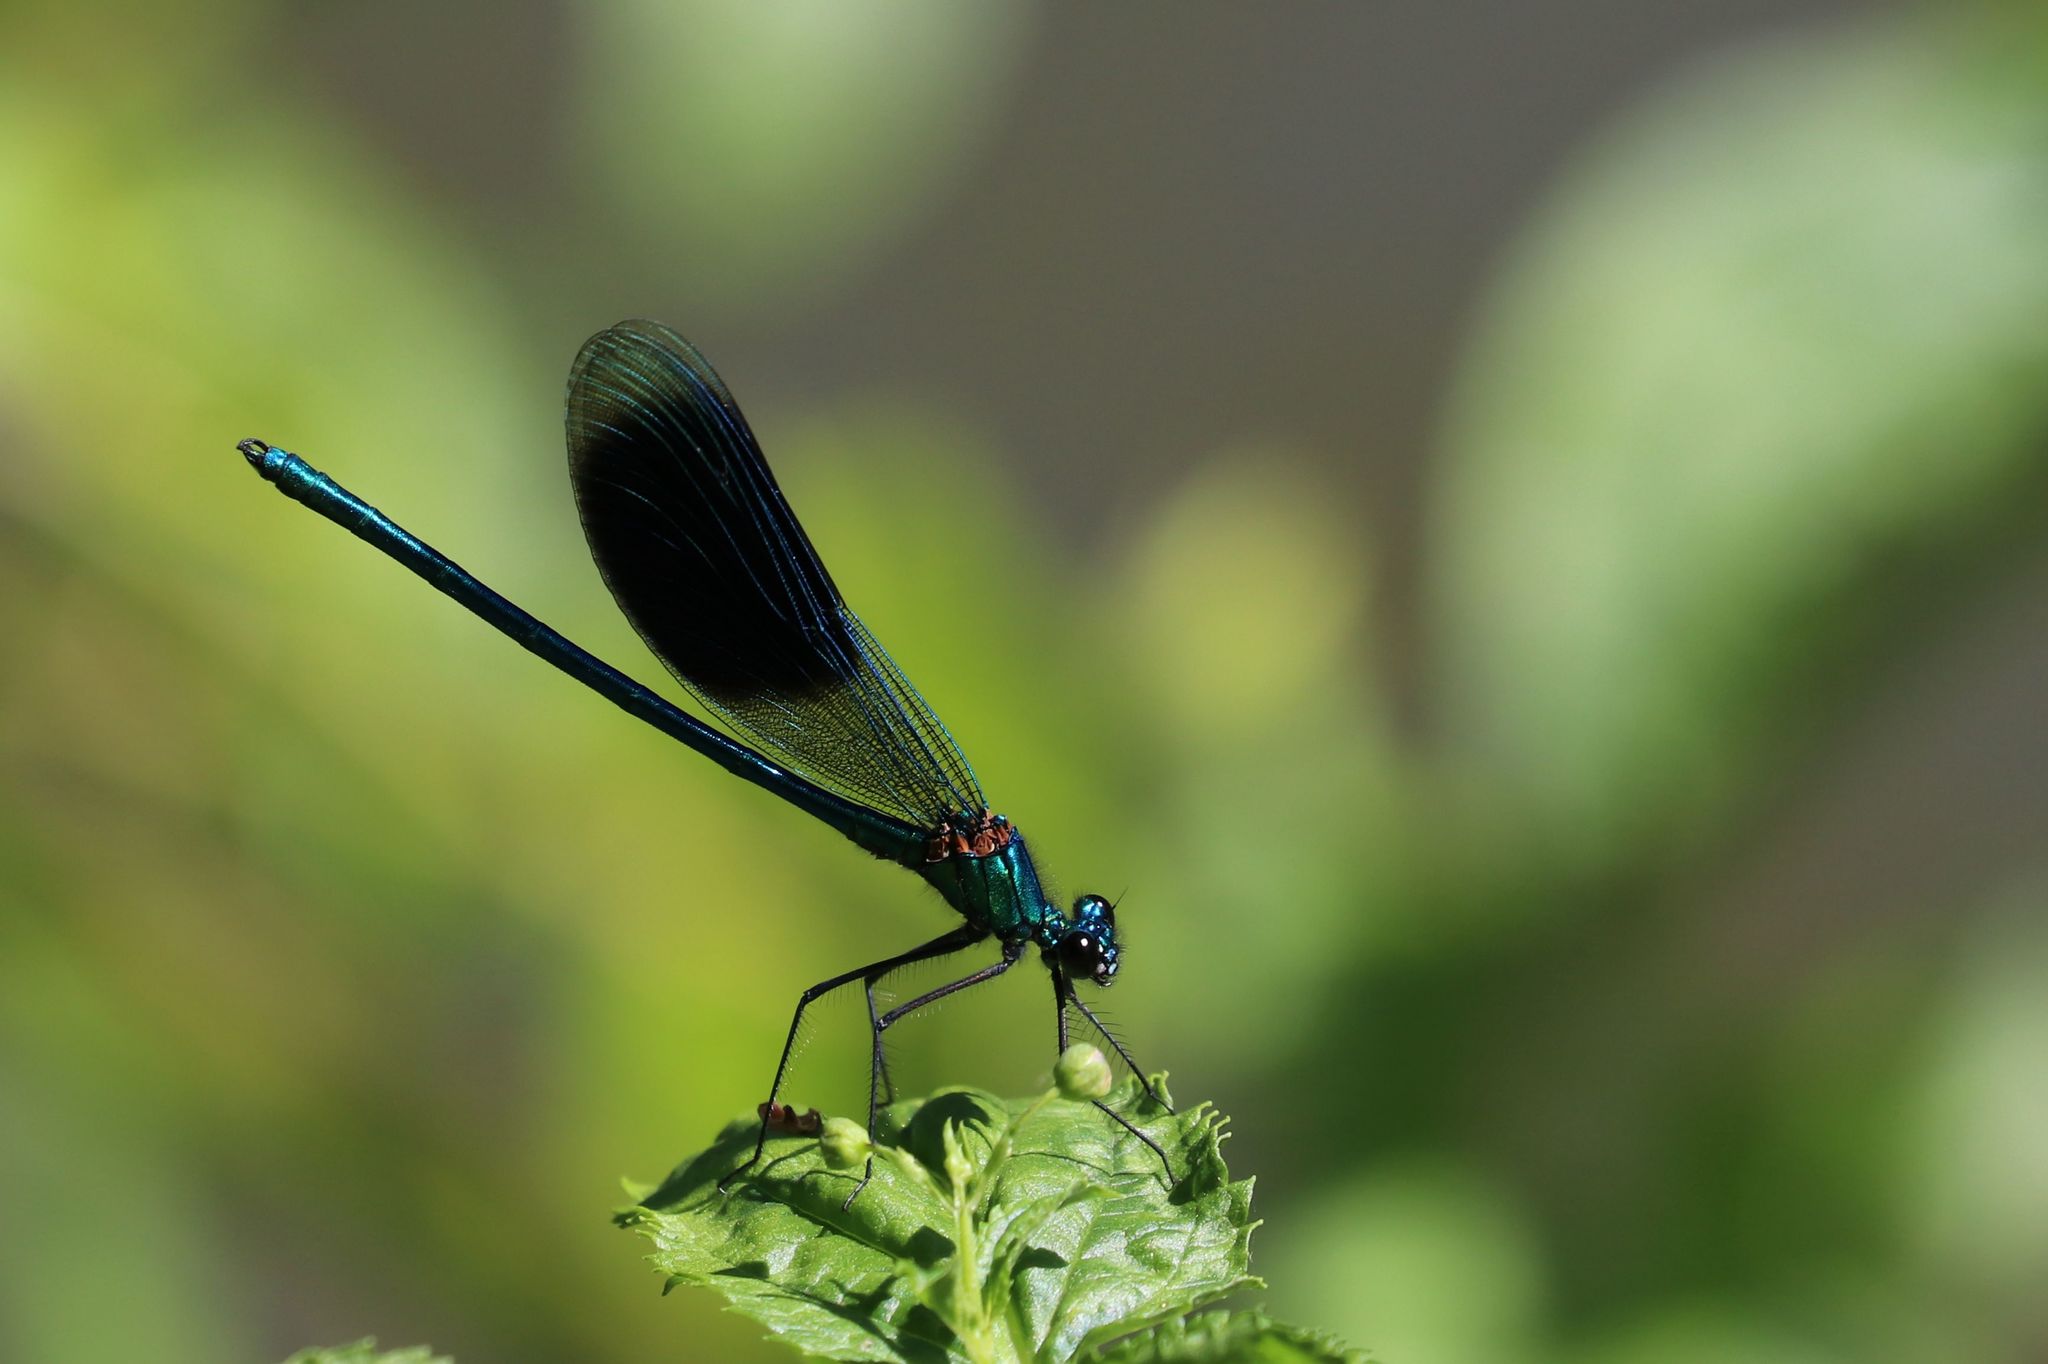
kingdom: Animalia
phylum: Arthropoda
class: Insecta
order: Odonata
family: Calopterygidae
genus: Calopteryx
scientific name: Calopteryx splendens
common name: Banded demoiselle
